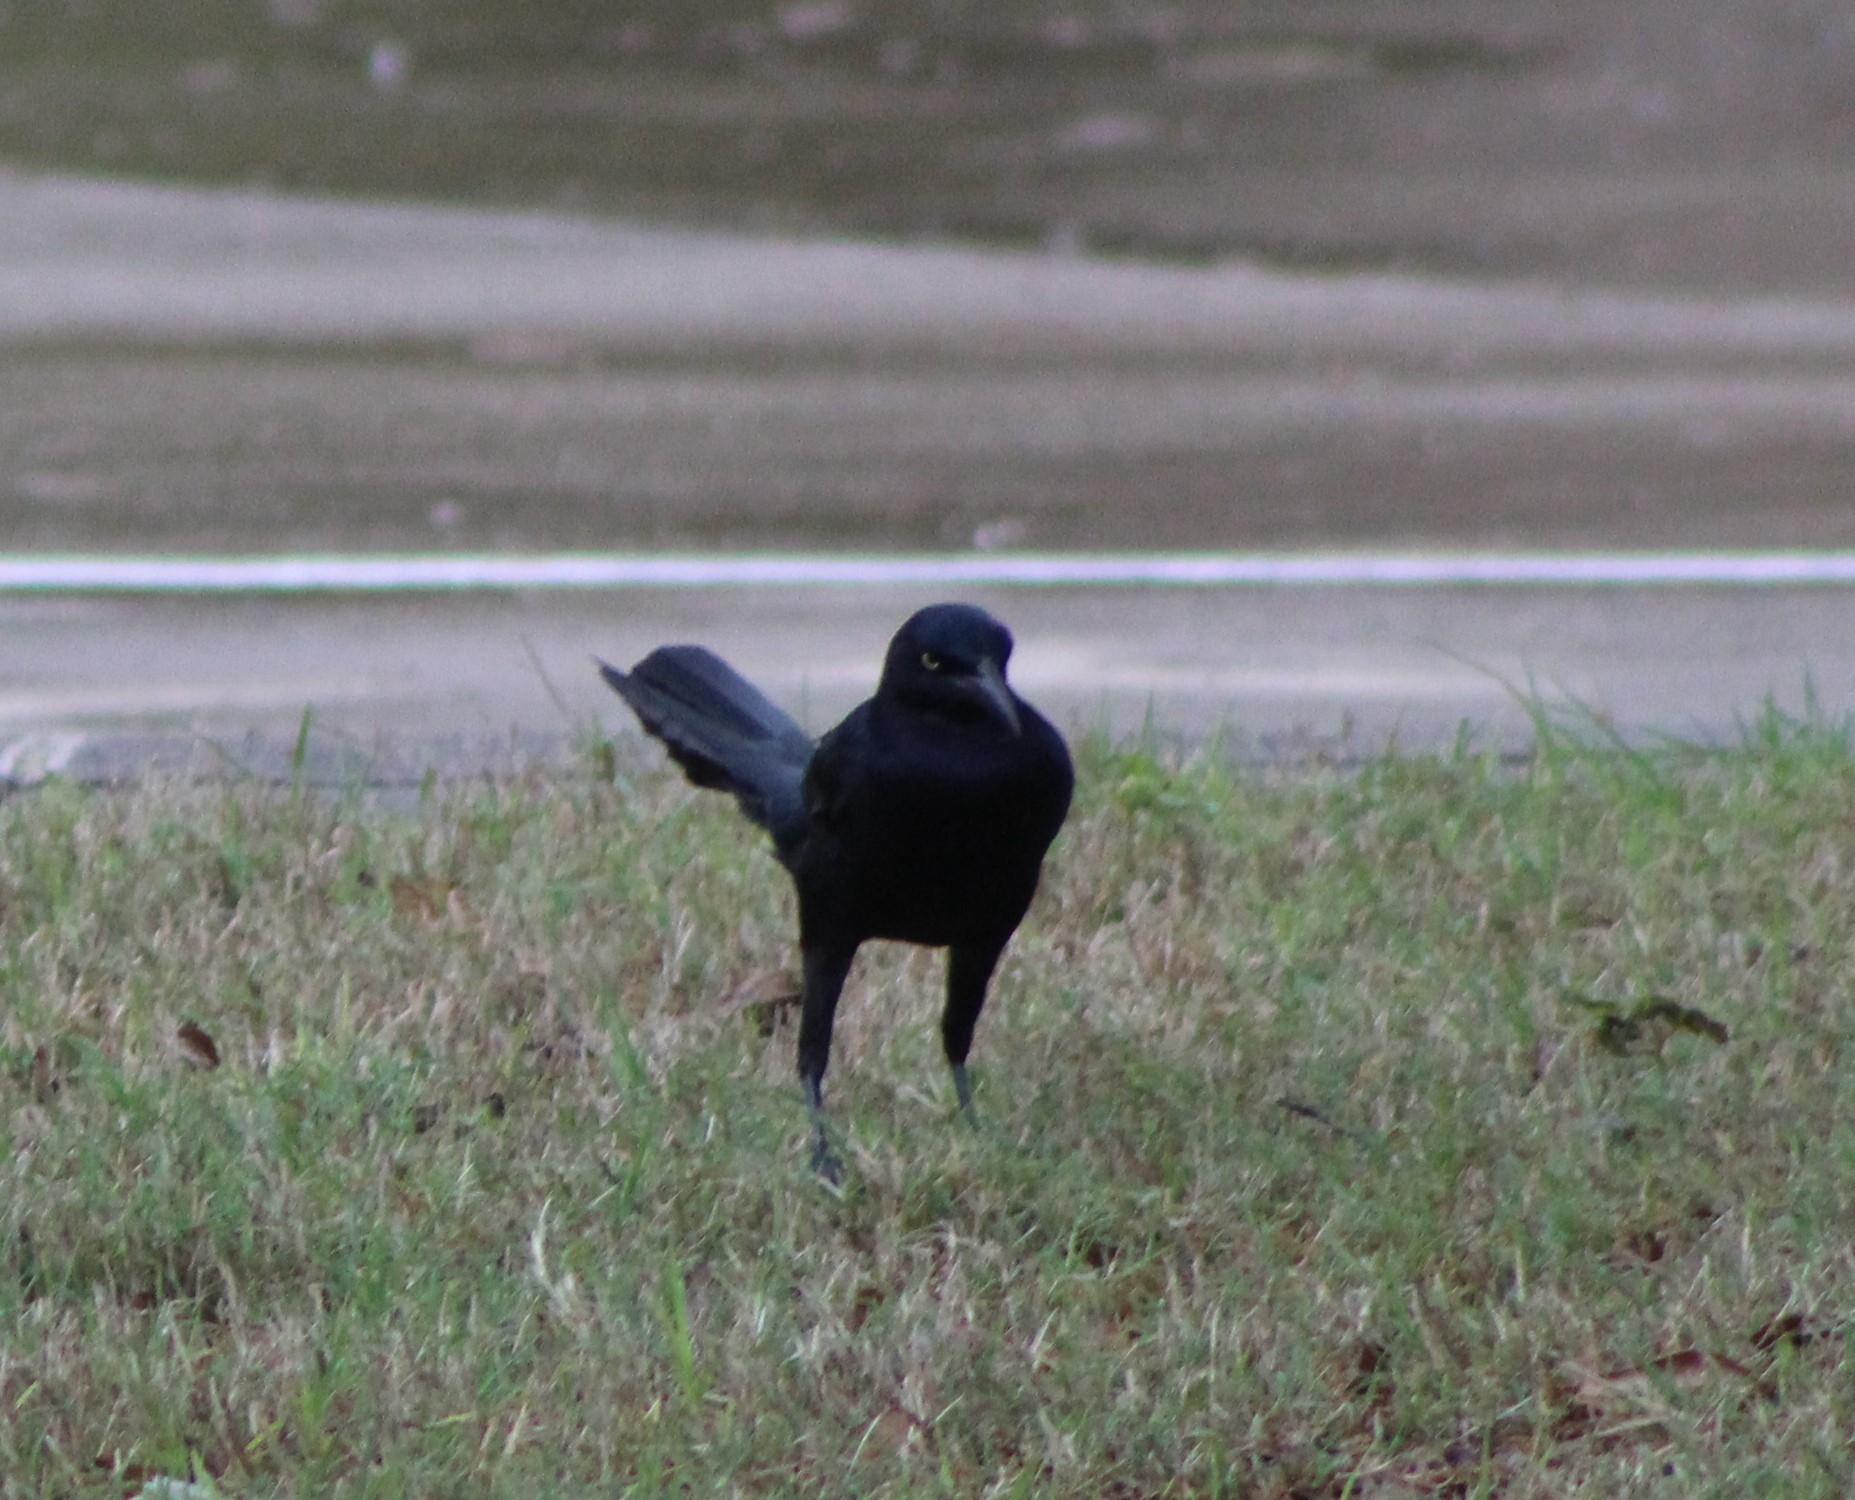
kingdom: Animalia
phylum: Chordata
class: Aves
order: Passeriformes
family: Icteridae
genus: Quiscalus
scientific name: Quiscalus mexicanus
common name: Great-tailed grackle
